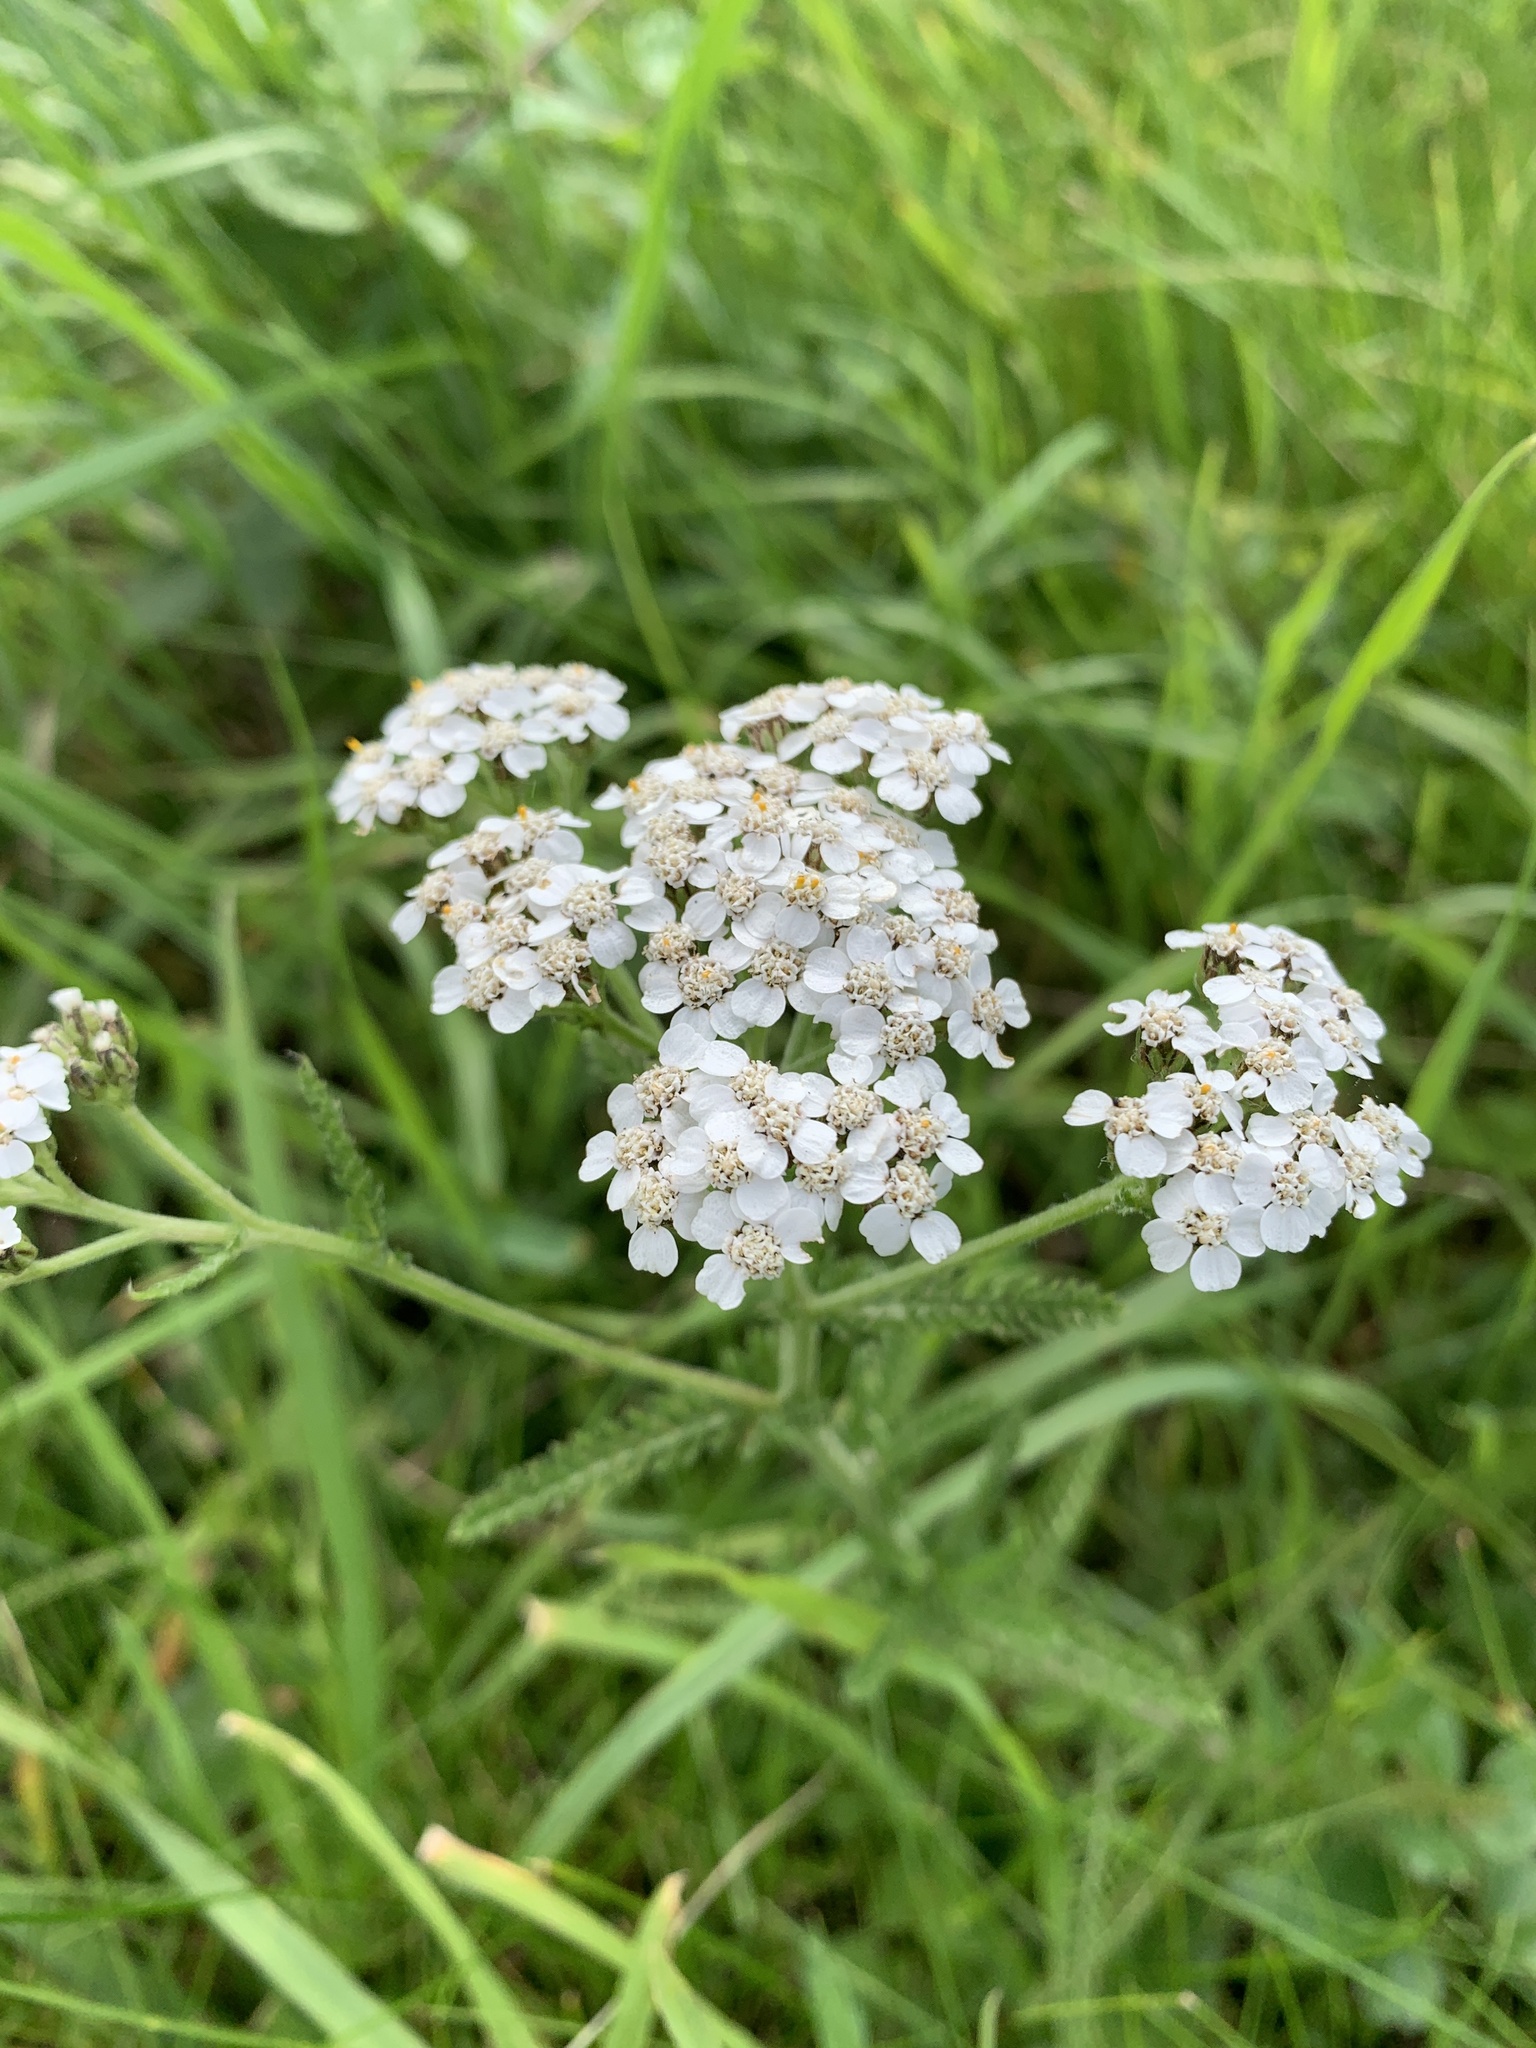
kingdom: Plantae
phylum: Tracheophyta
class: Magnoliopsida
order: Asterales
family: Asteraceae
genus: Achillea
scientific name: Achillea millefolium
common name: Yarrow
